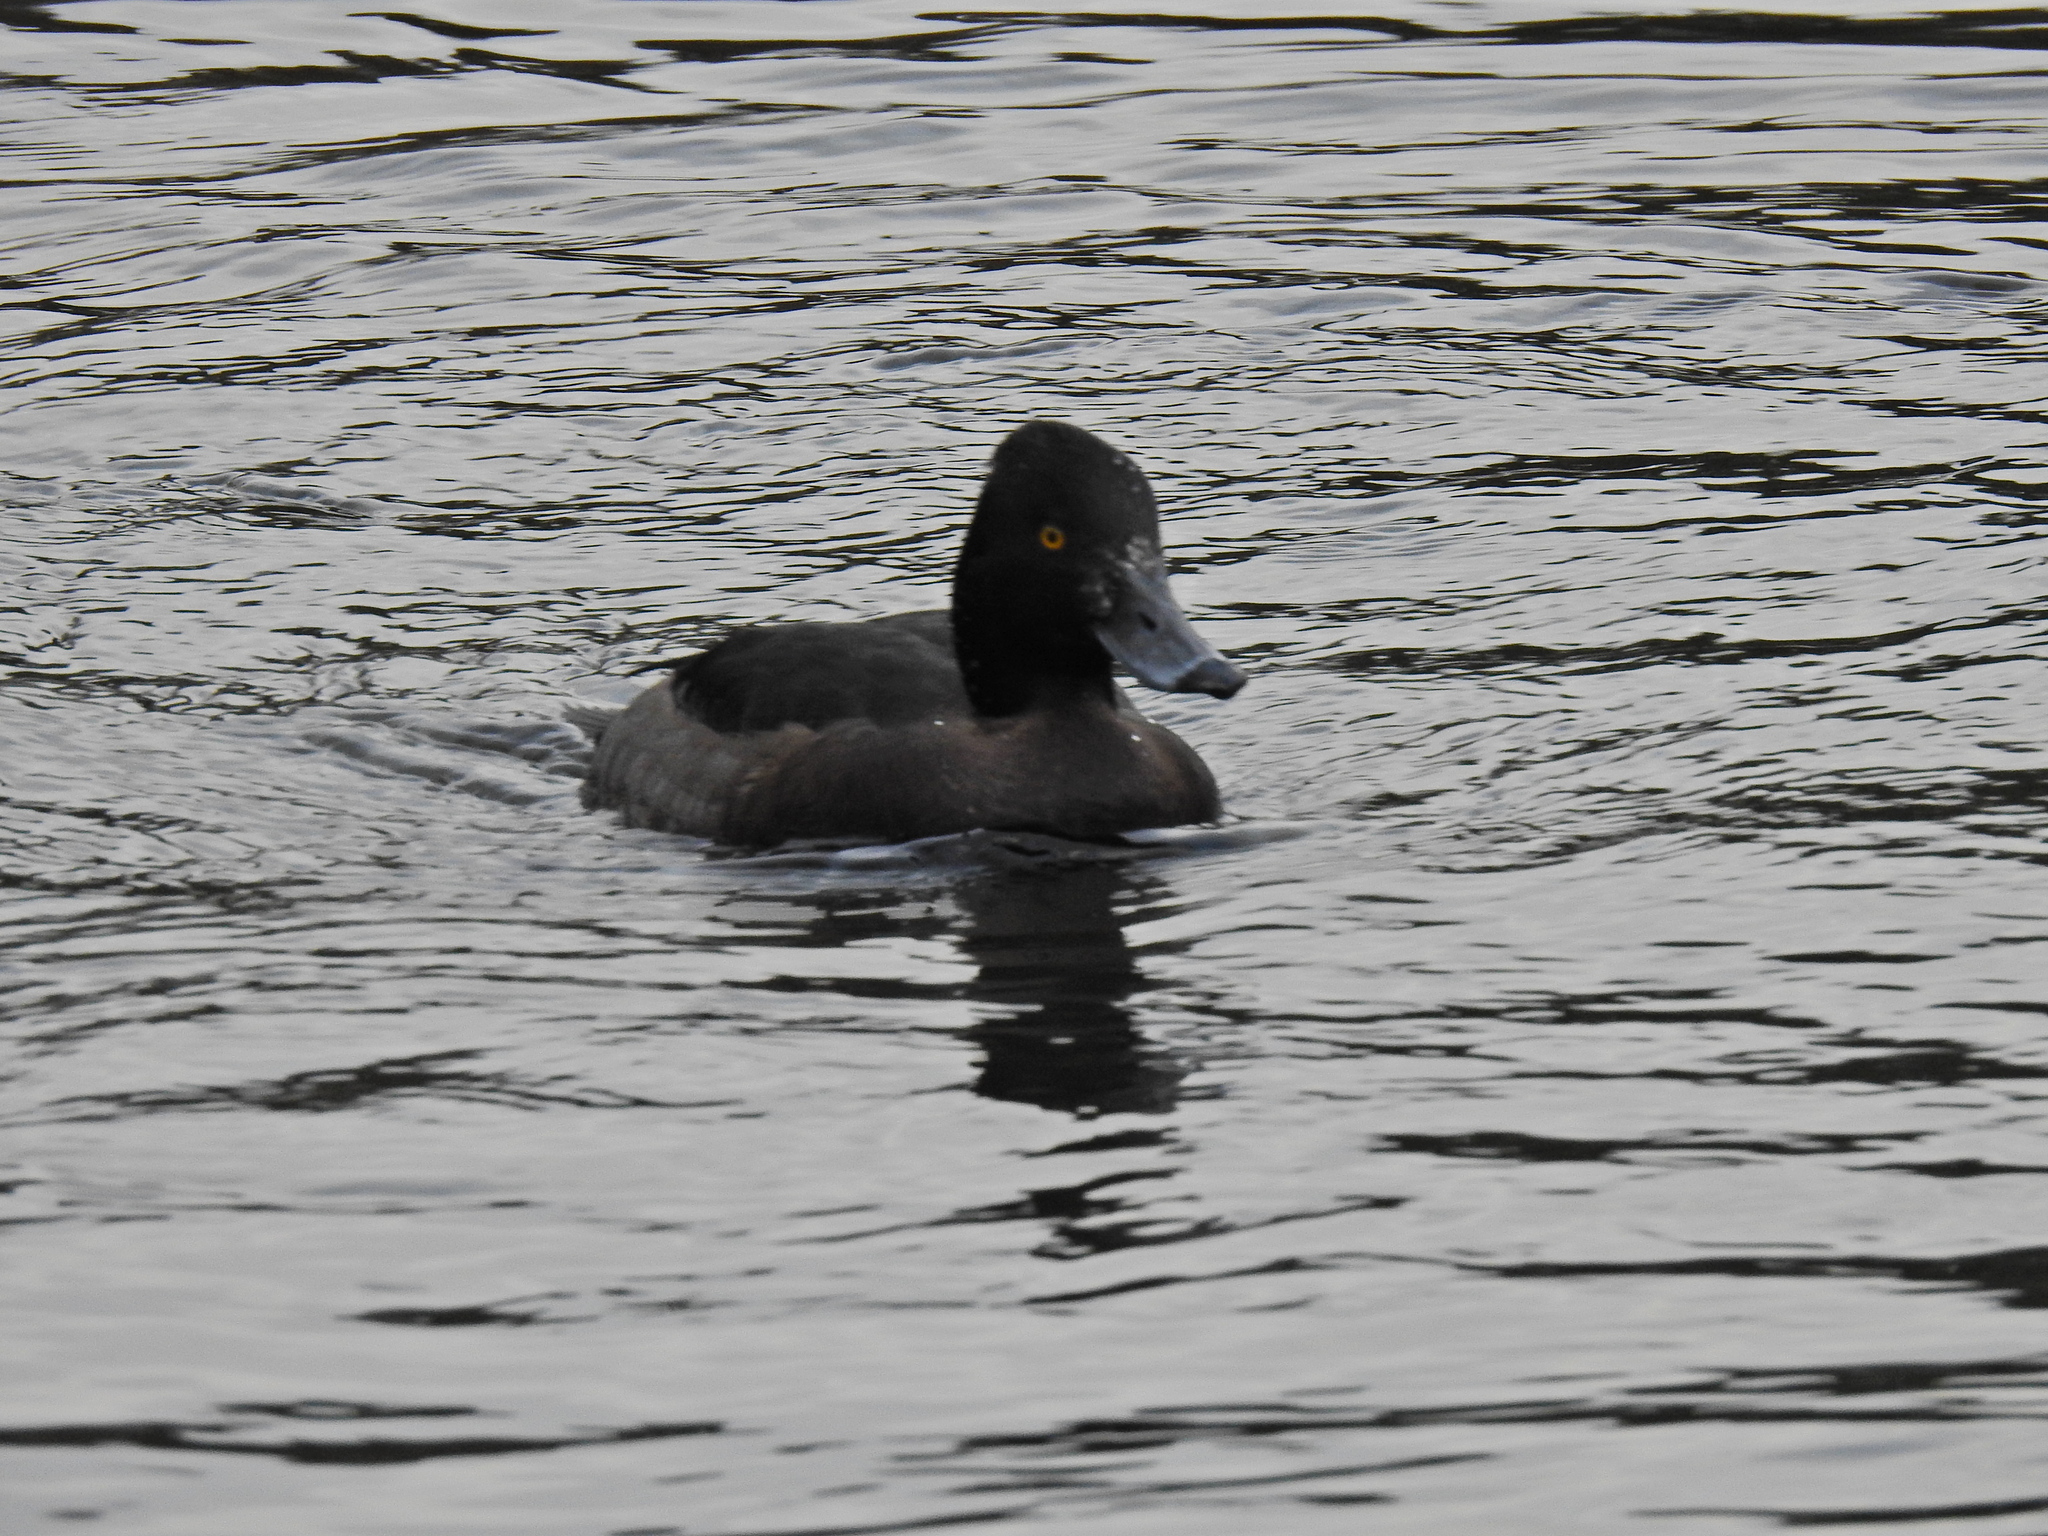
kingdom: Animalia
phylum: Chordata
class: Aves
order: Anseriformes
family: Anatidae
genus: Aythya
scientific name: Aythya fuligula
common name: Tufted duck
